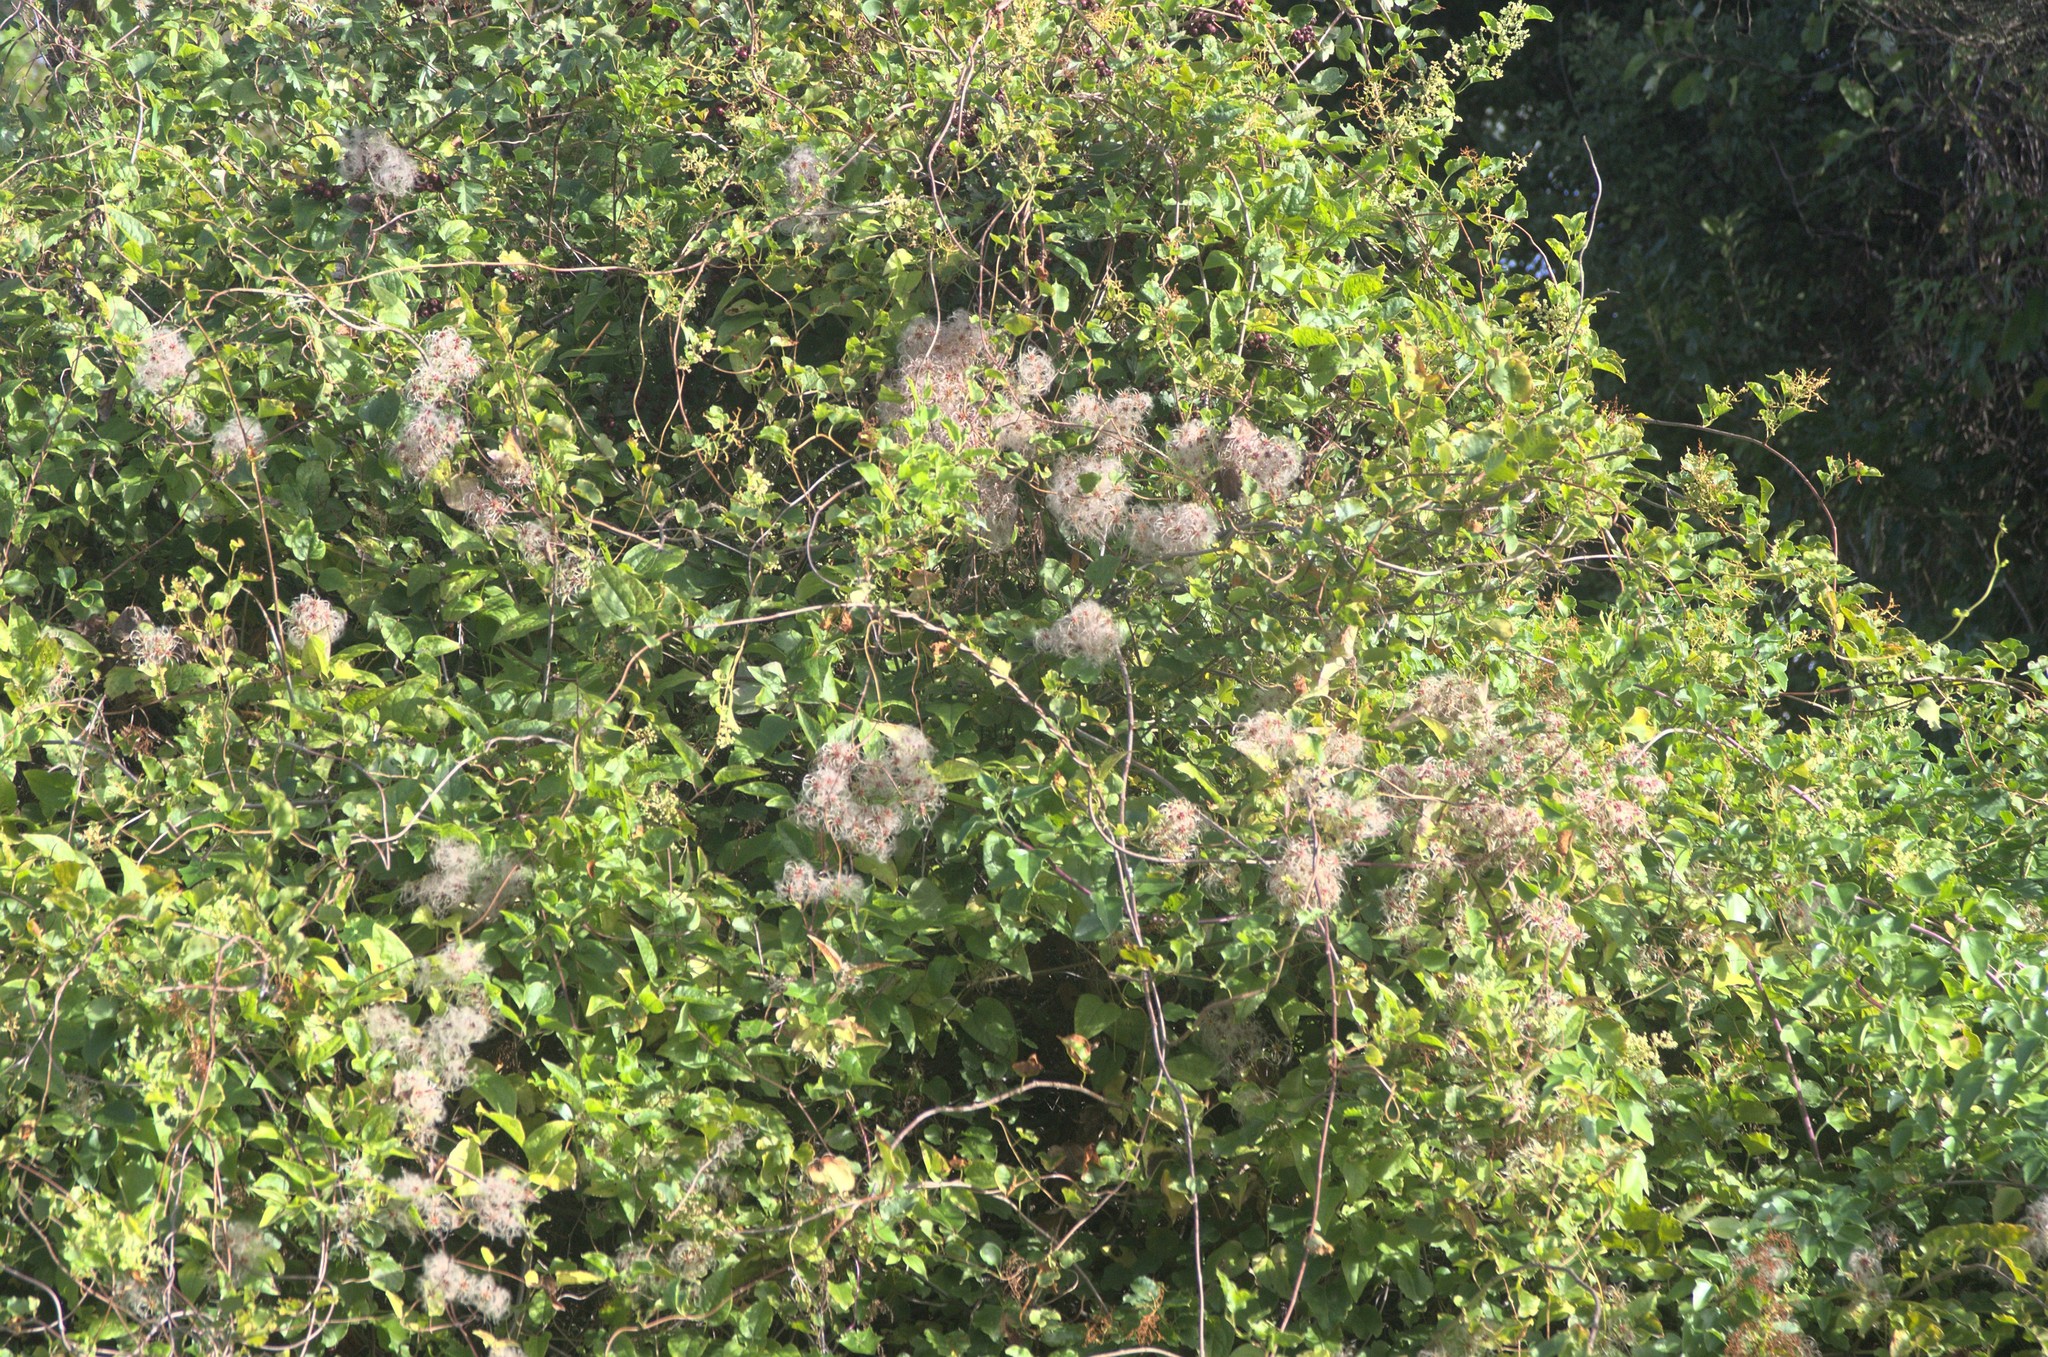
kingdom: Plantae
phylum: Tracheophyta
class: Magnoliopsida
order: Ranunculales
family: Ranunculaceae
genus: Clematis
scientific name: Clematis vitalba
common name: Evergreen clematis
